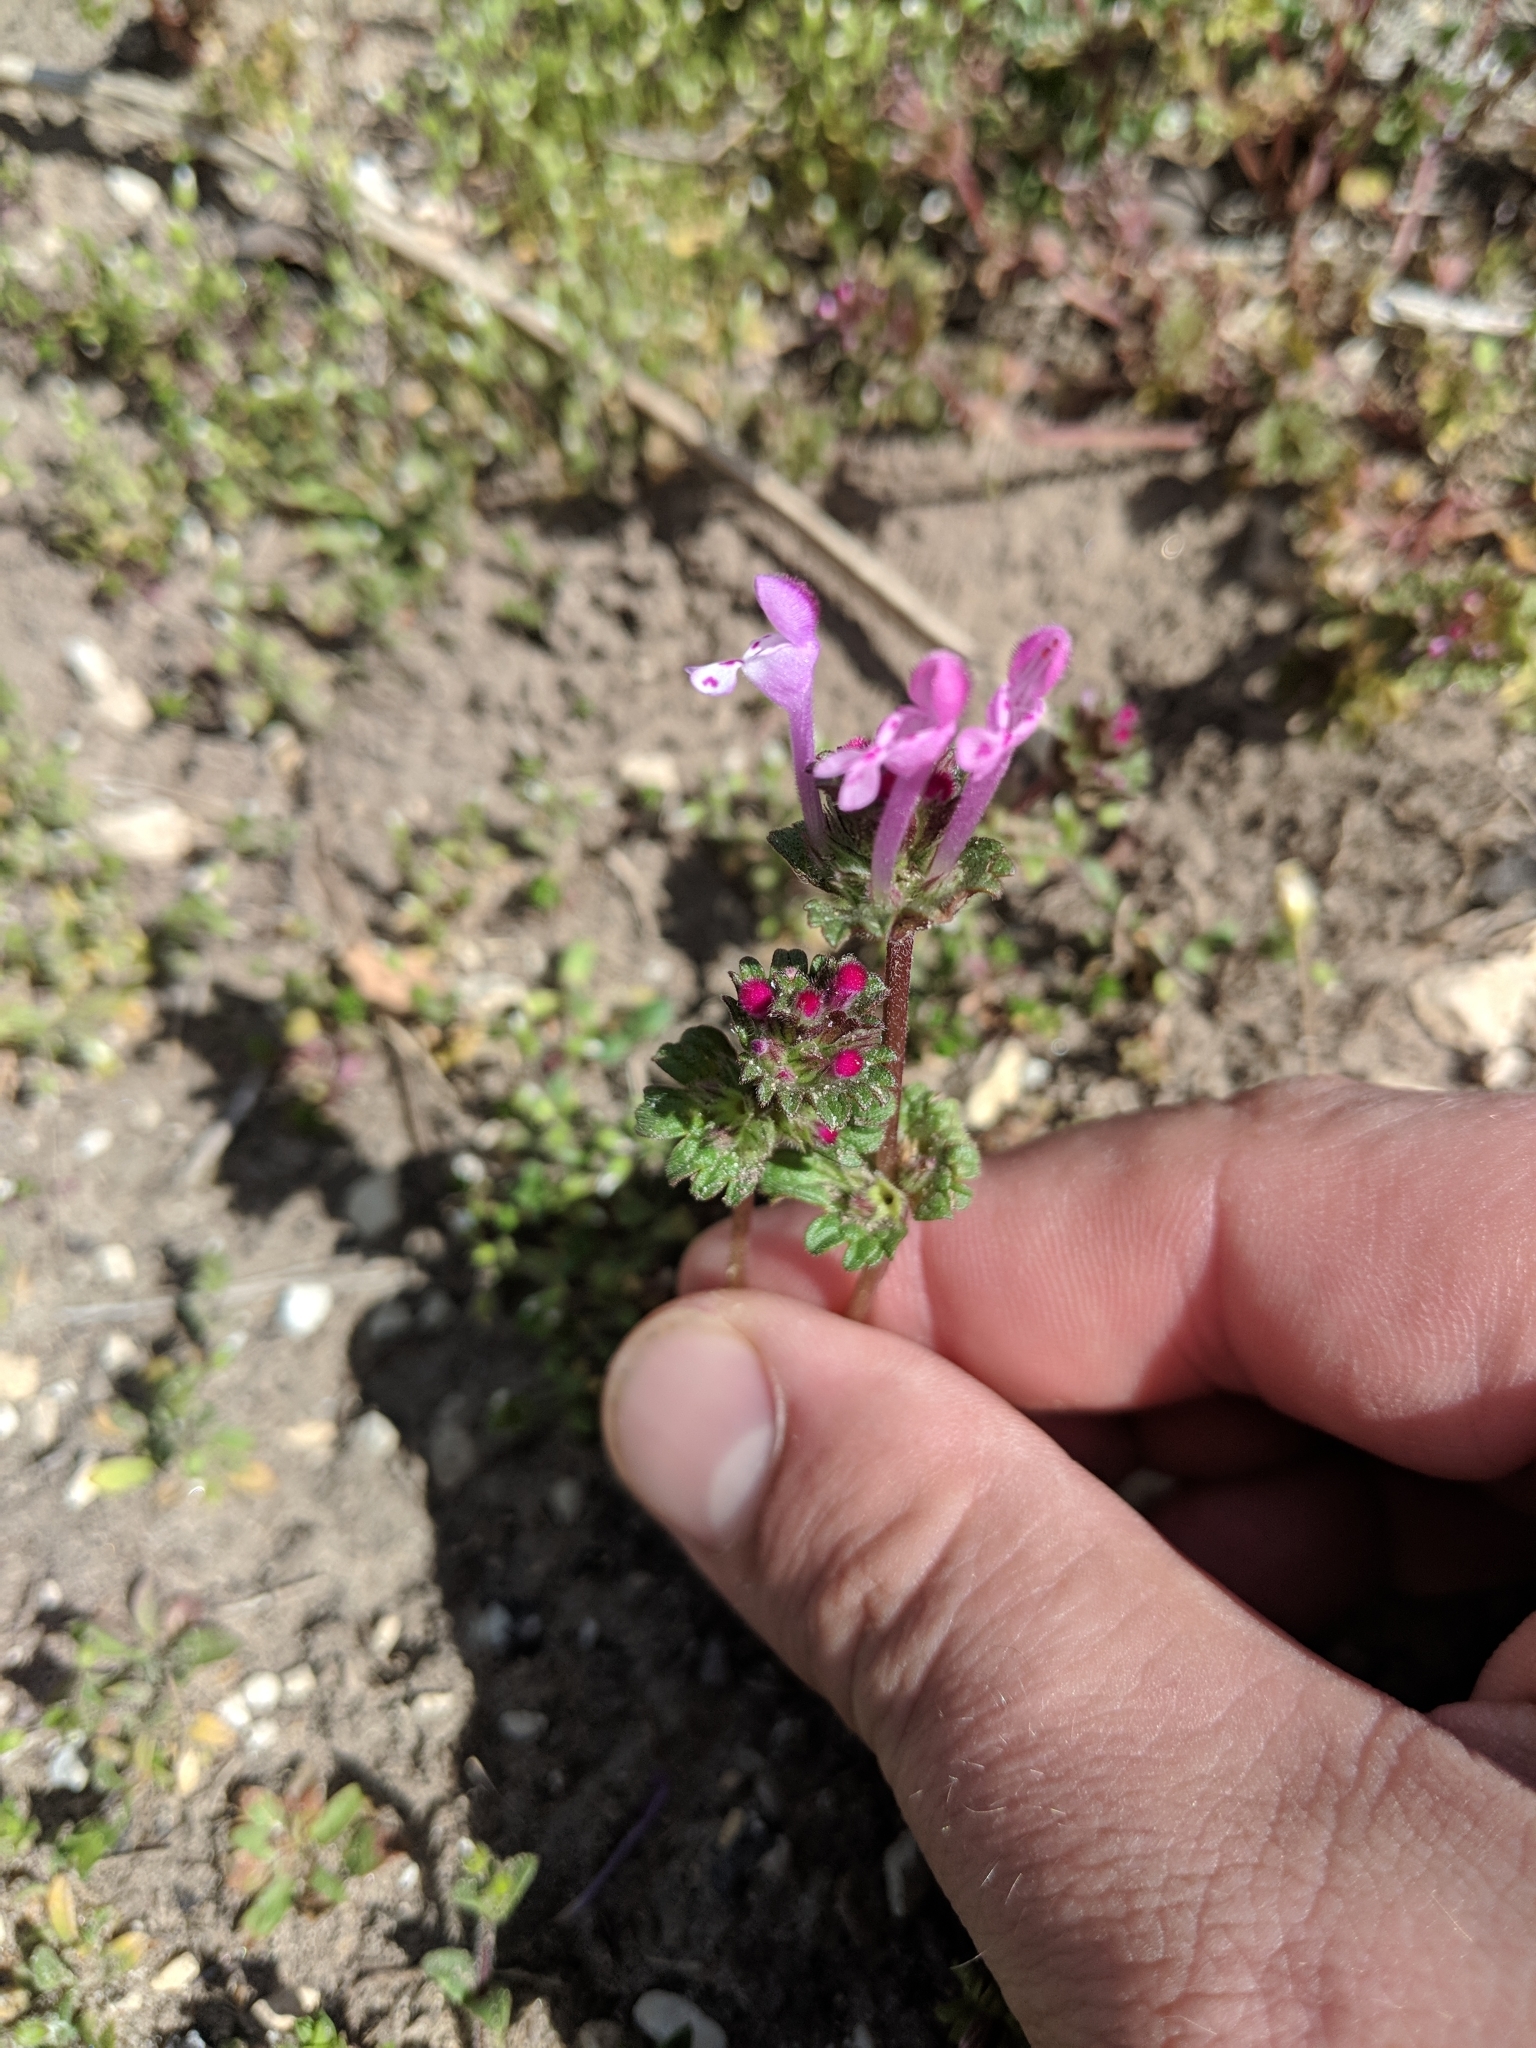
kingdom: Plantae
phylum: Tracheophyta
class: Magnoliopsida
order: Lamiales
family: Lamiaceae
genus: Lamium
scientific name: Lamium amplexicaule
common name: Henbit dead-nettle
